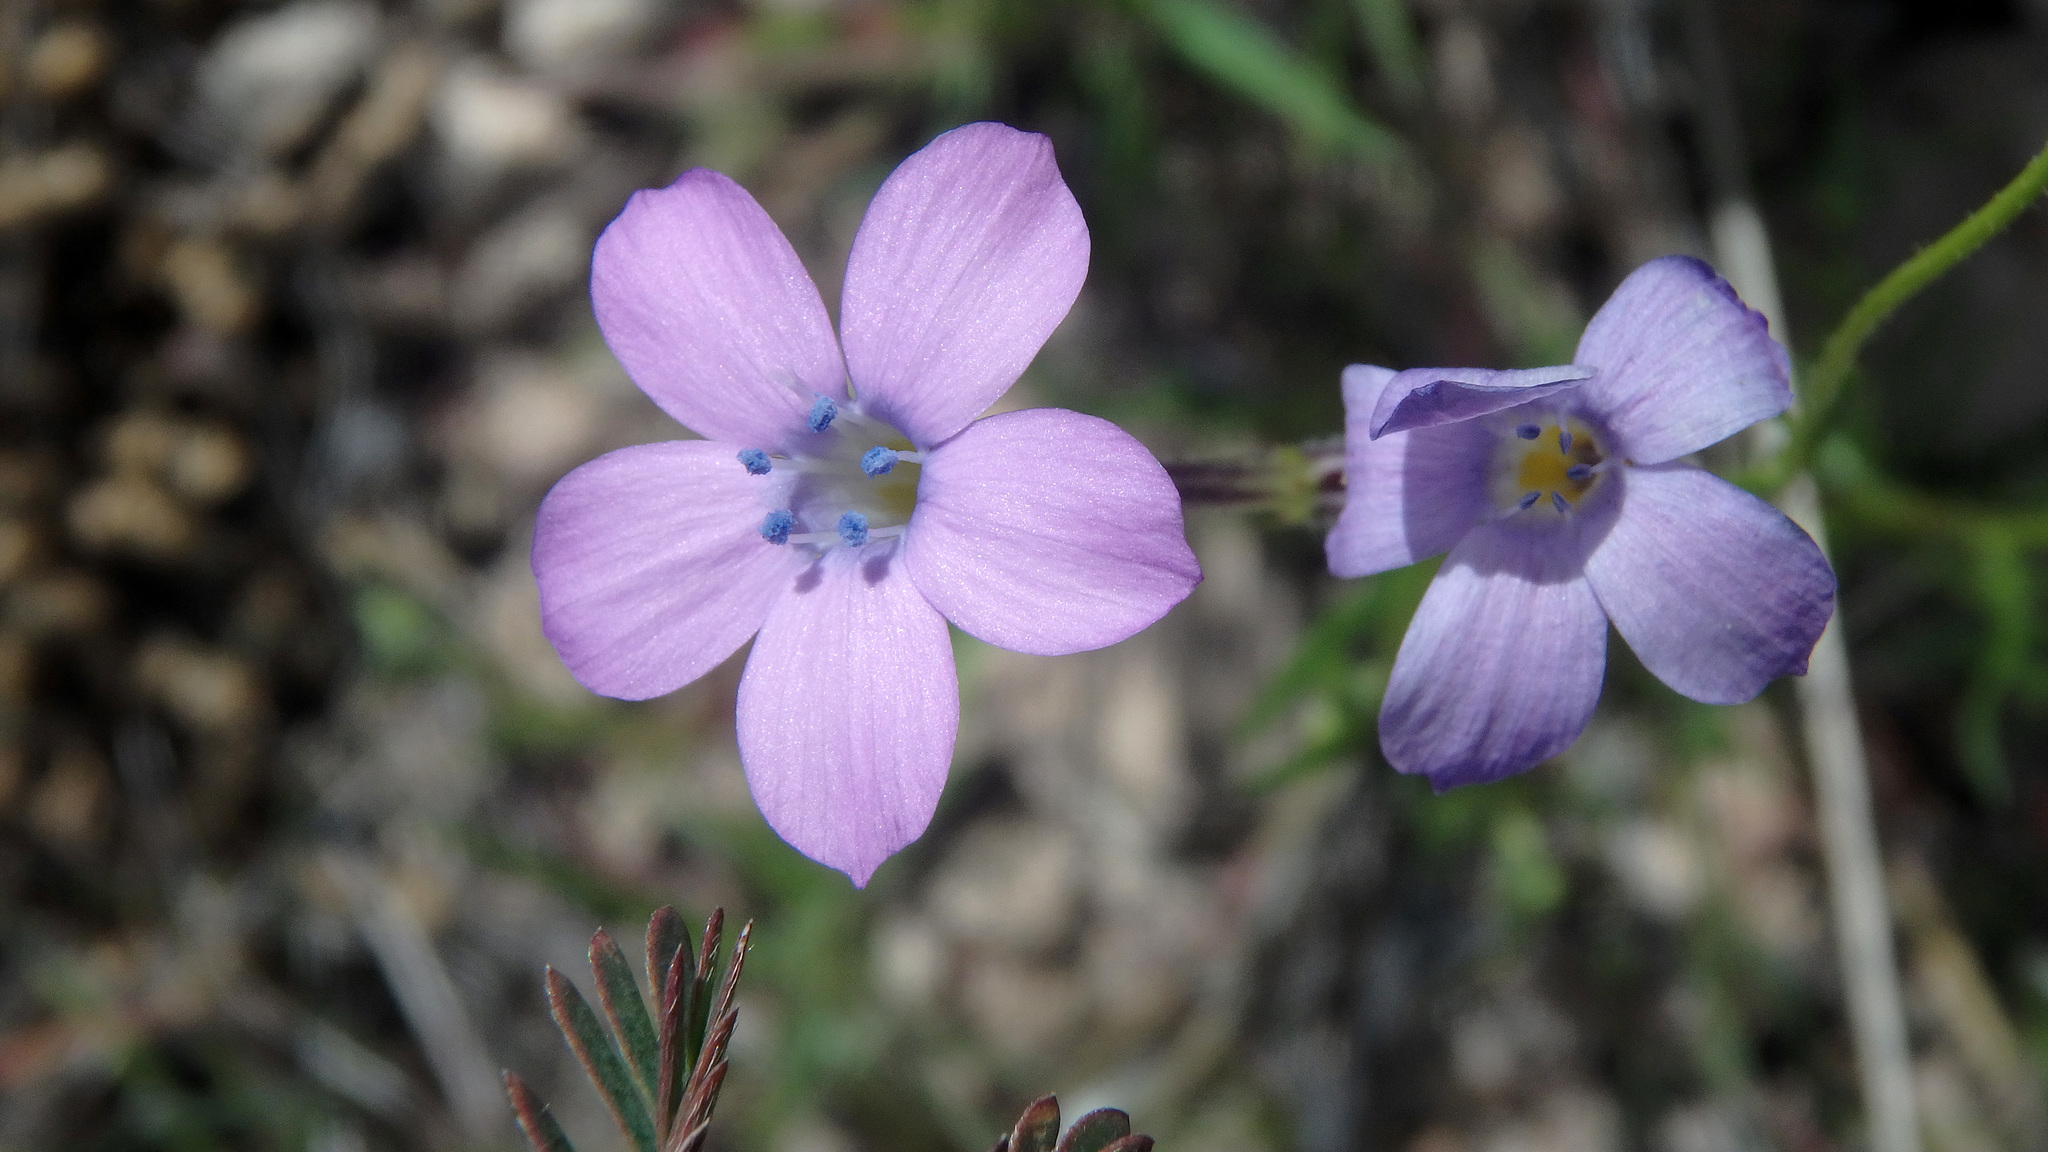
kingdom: Plantae
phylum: Tracheophyta
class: Magnoliopsida
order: Ericales
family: Polemoniaceae
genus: Gilia
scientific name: Gilia flavocincta
